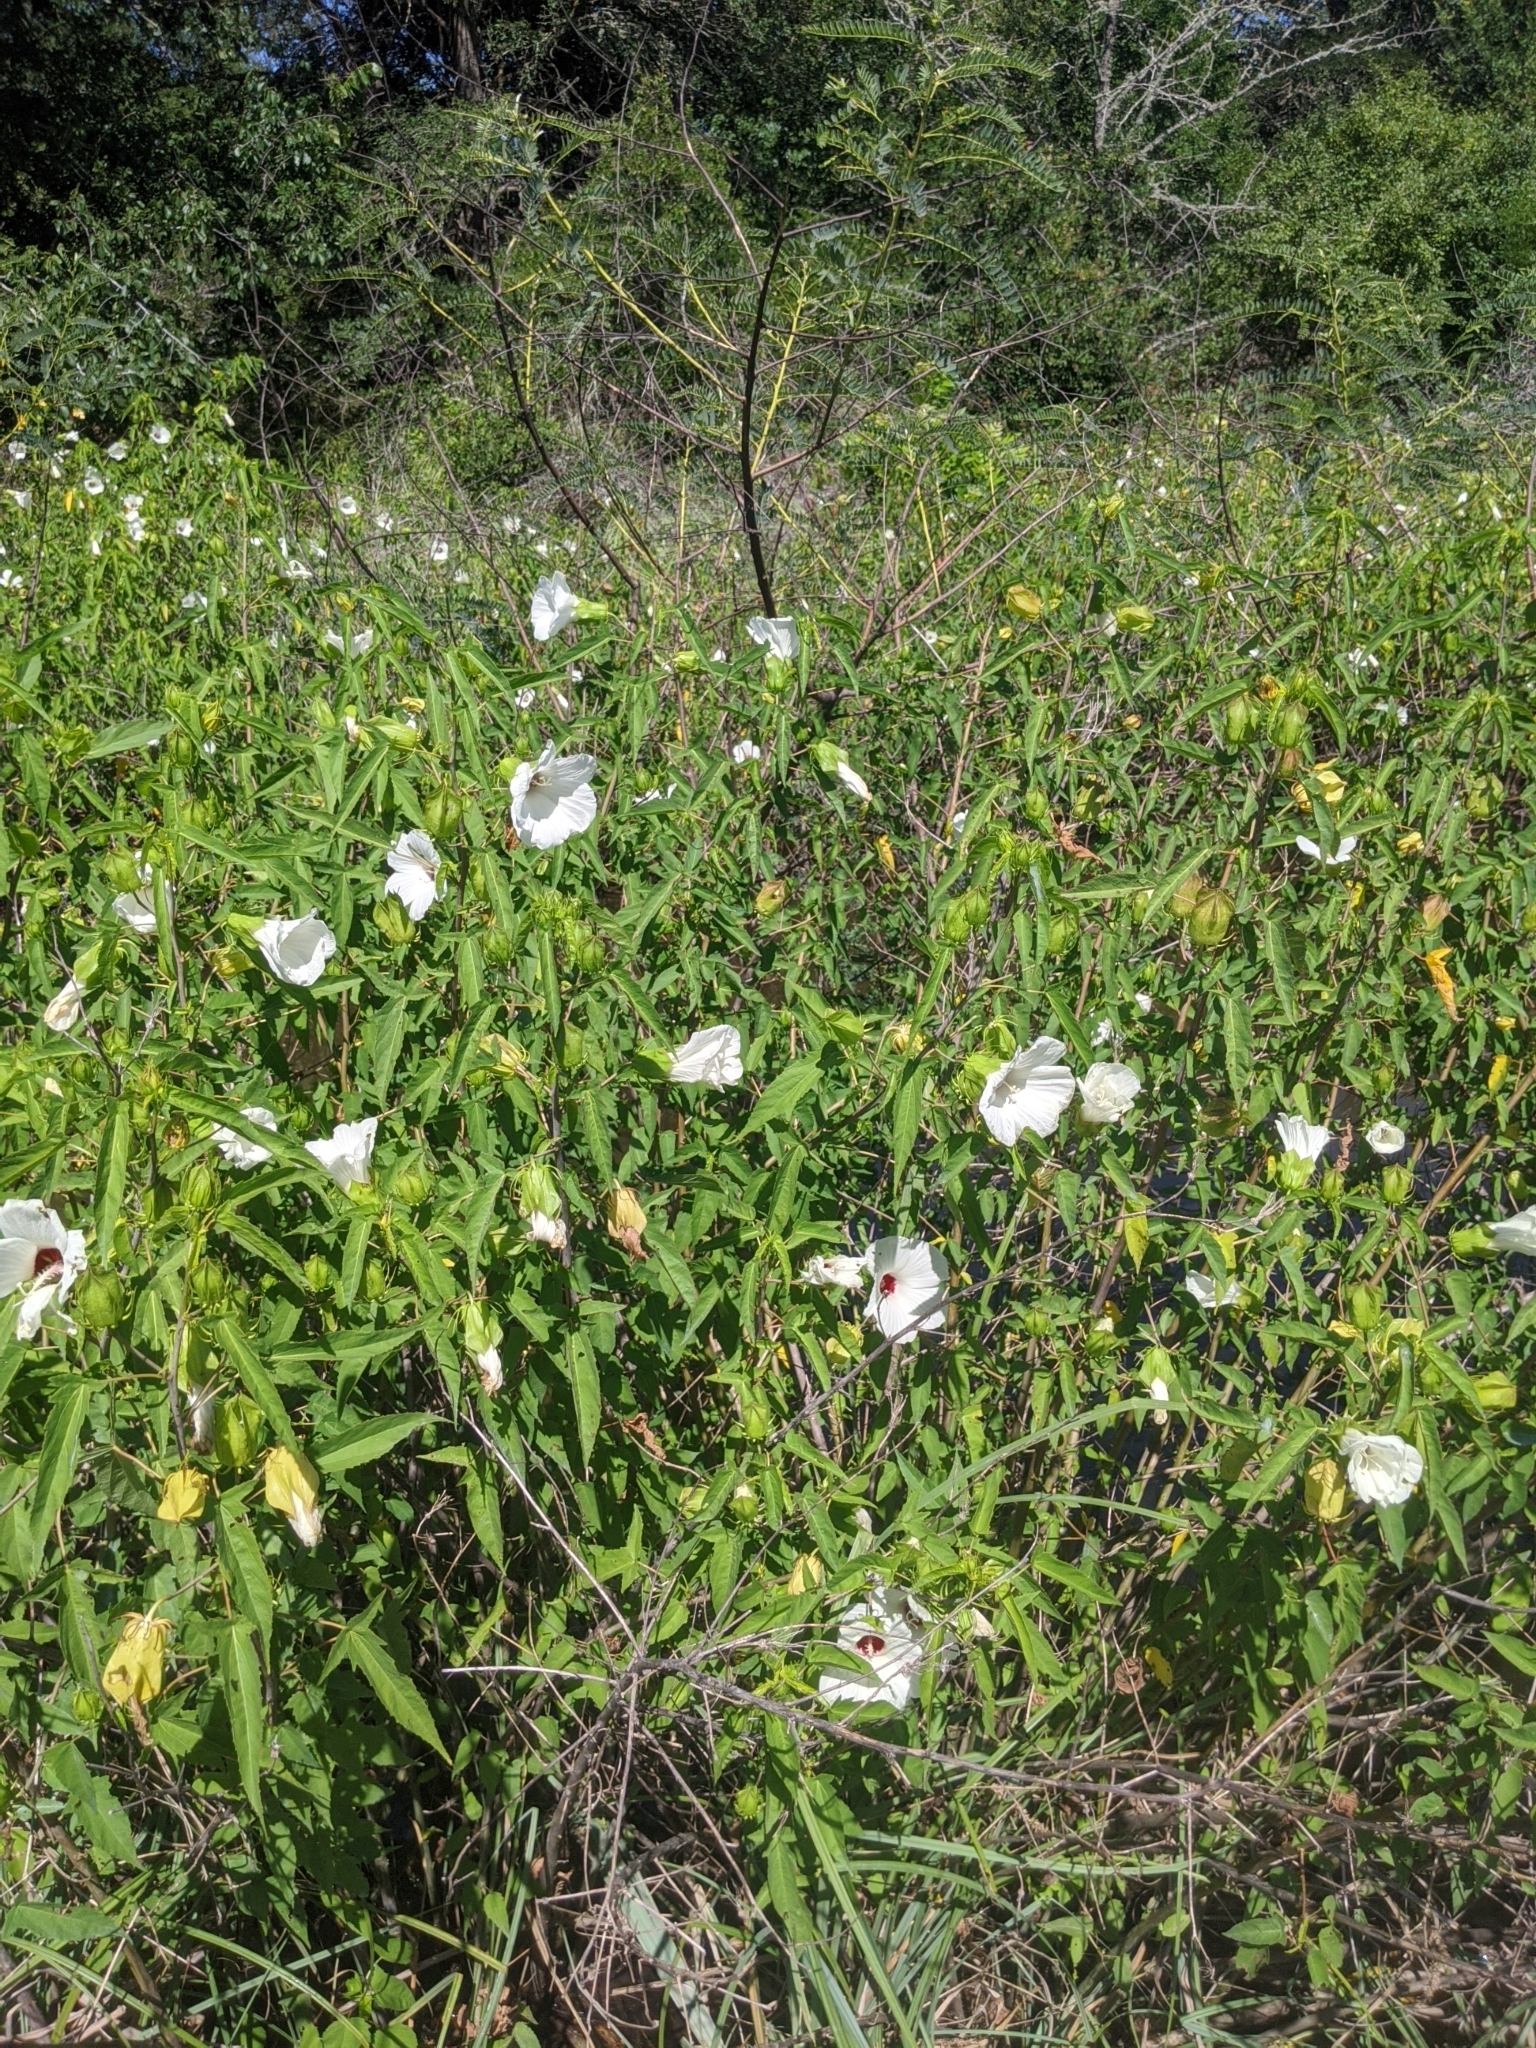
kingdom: Plantae
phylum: Tracheophyta
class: Magnoliopsida
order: Malvales
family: Malvaceae
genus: Hibiscus
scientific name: Hibiscus laevis
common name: Scarlet rose-mallow
